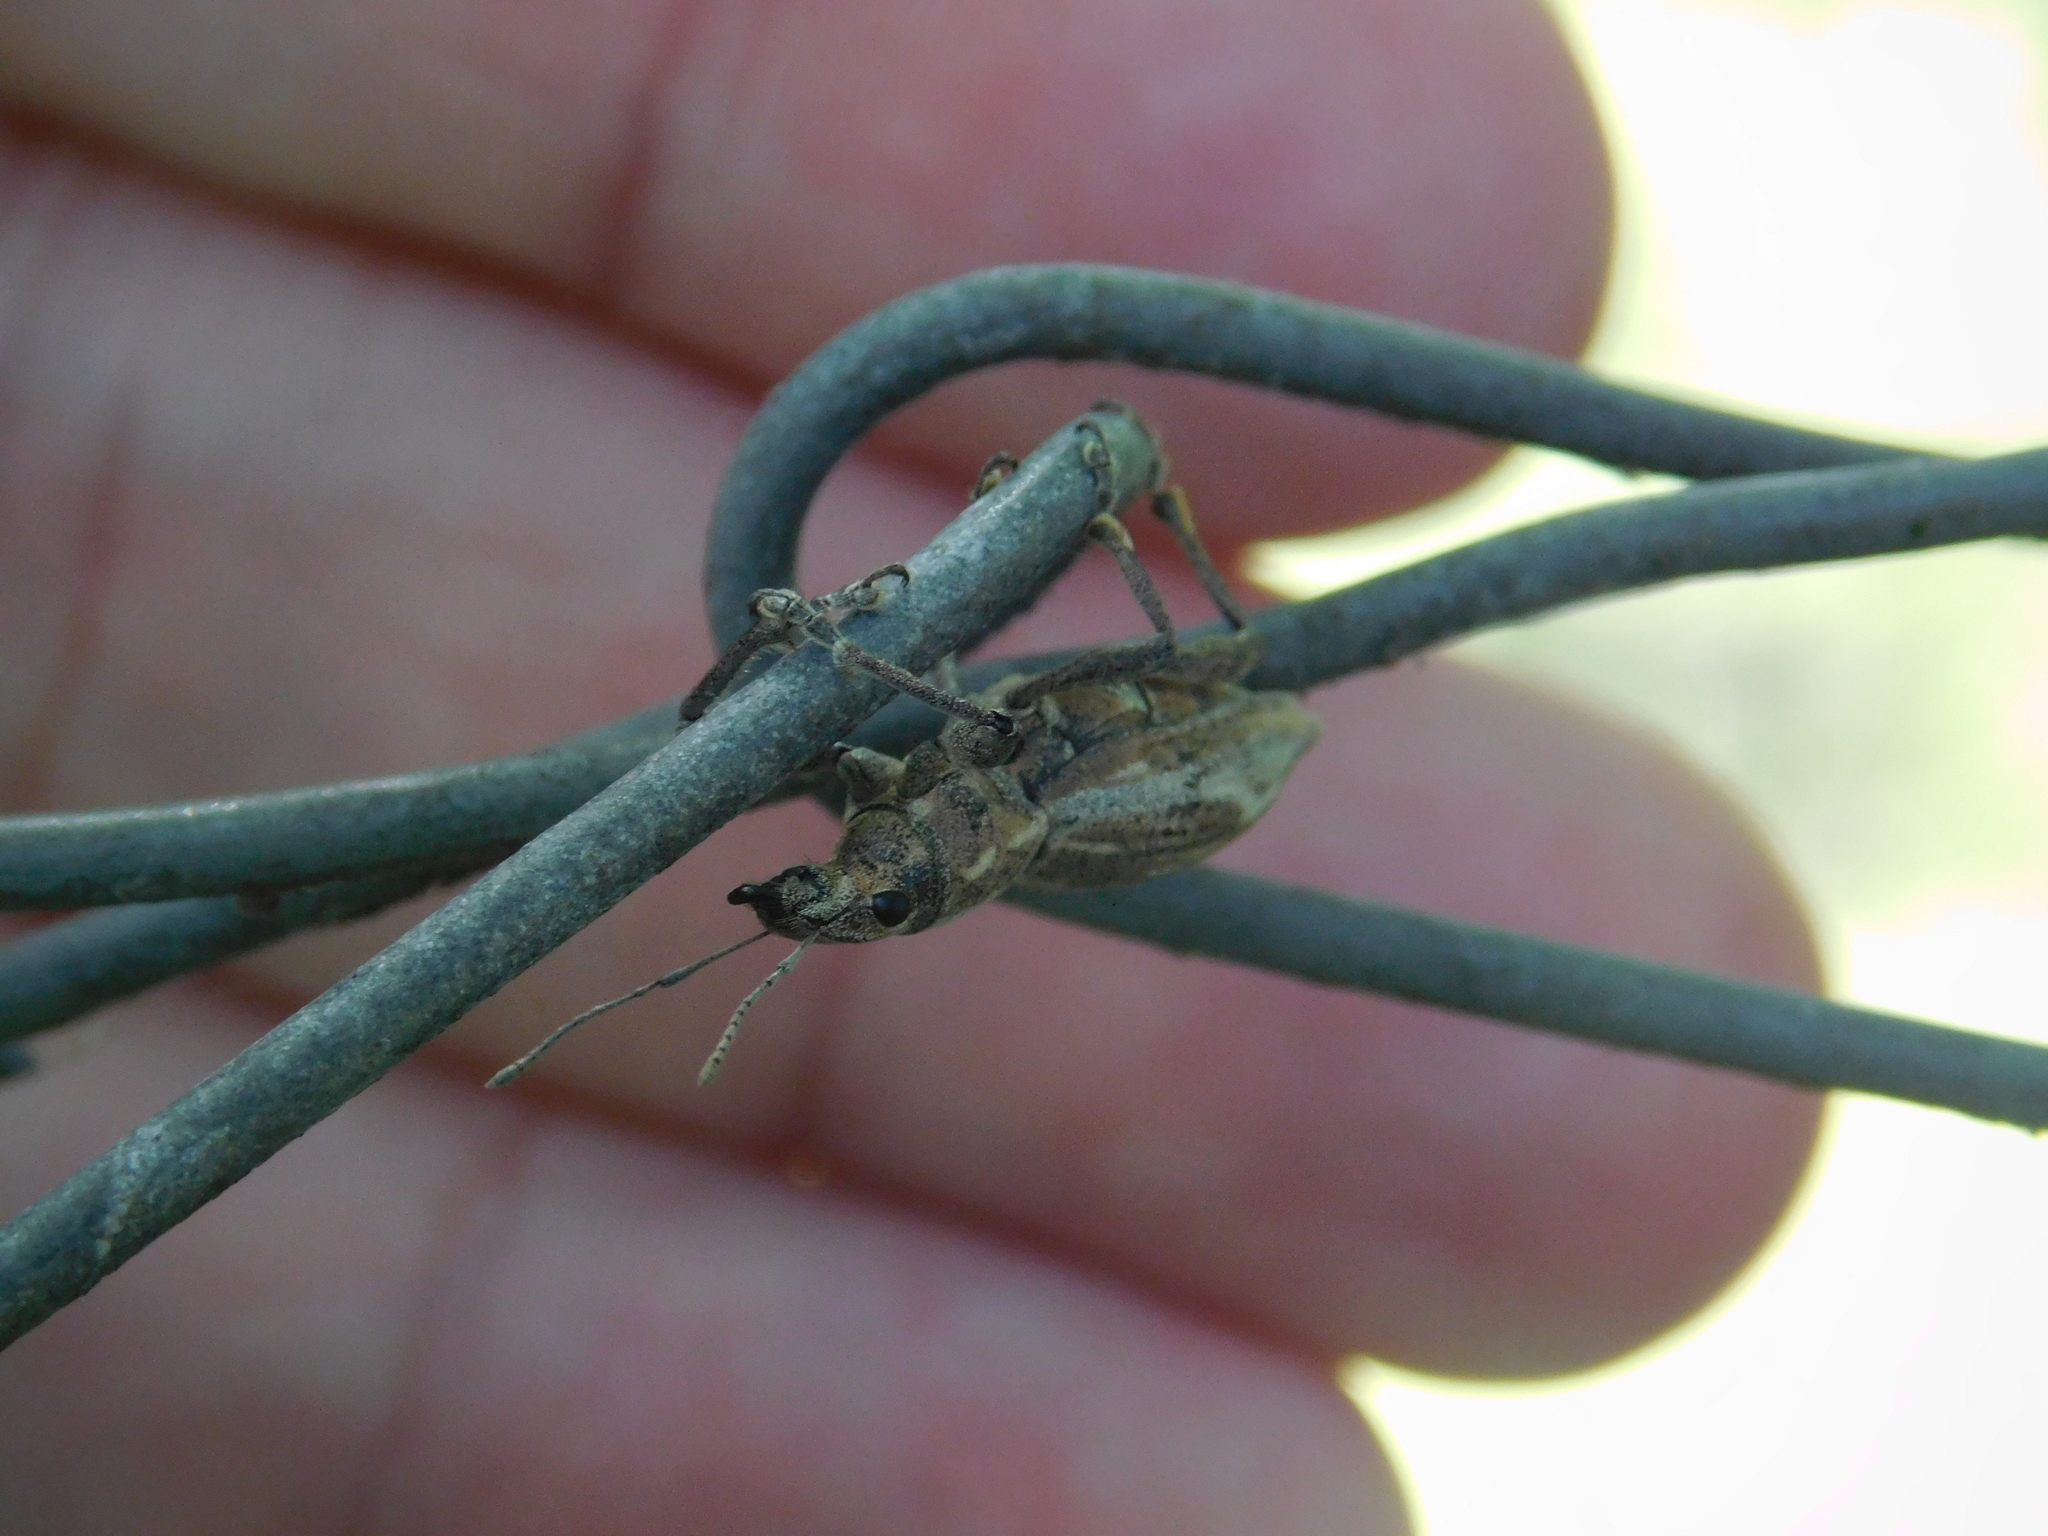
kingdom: Animalia
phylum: Arthropoda
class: Insecta
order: Coleoptera
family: Curculionidae
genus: Naupactus
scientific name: Naupactus xanthographus
